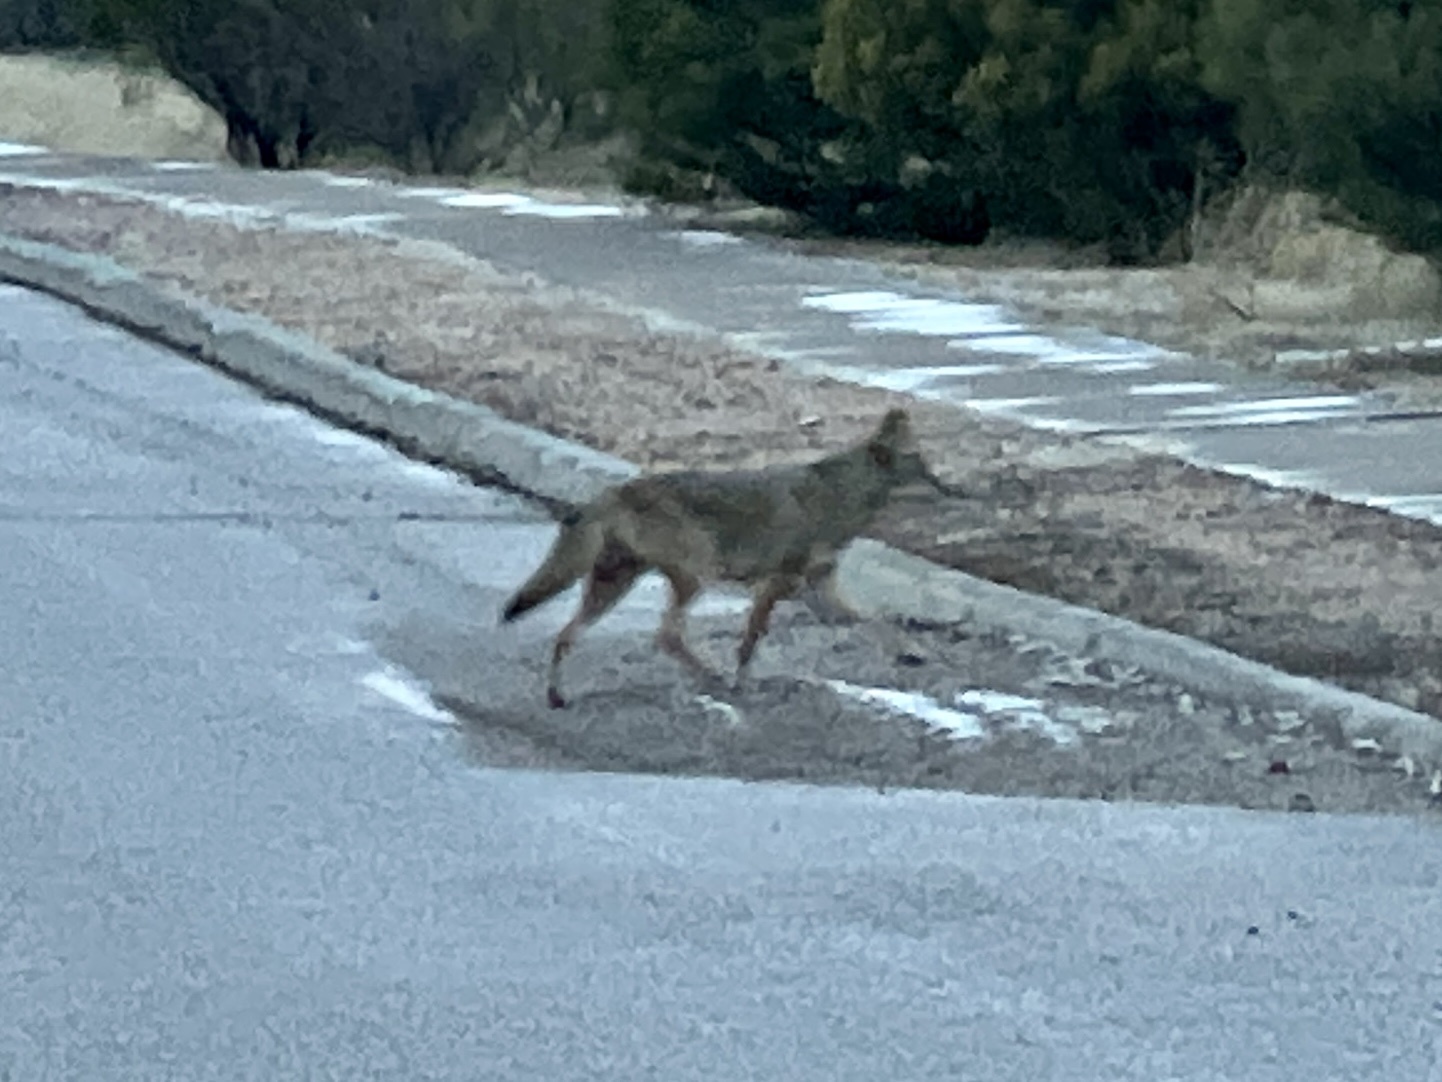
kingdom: Animalia
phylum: Chordata
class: Mammalia
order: Carnivora
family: Canidae
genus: Canis
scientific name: Canis latrans
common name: Coyote
